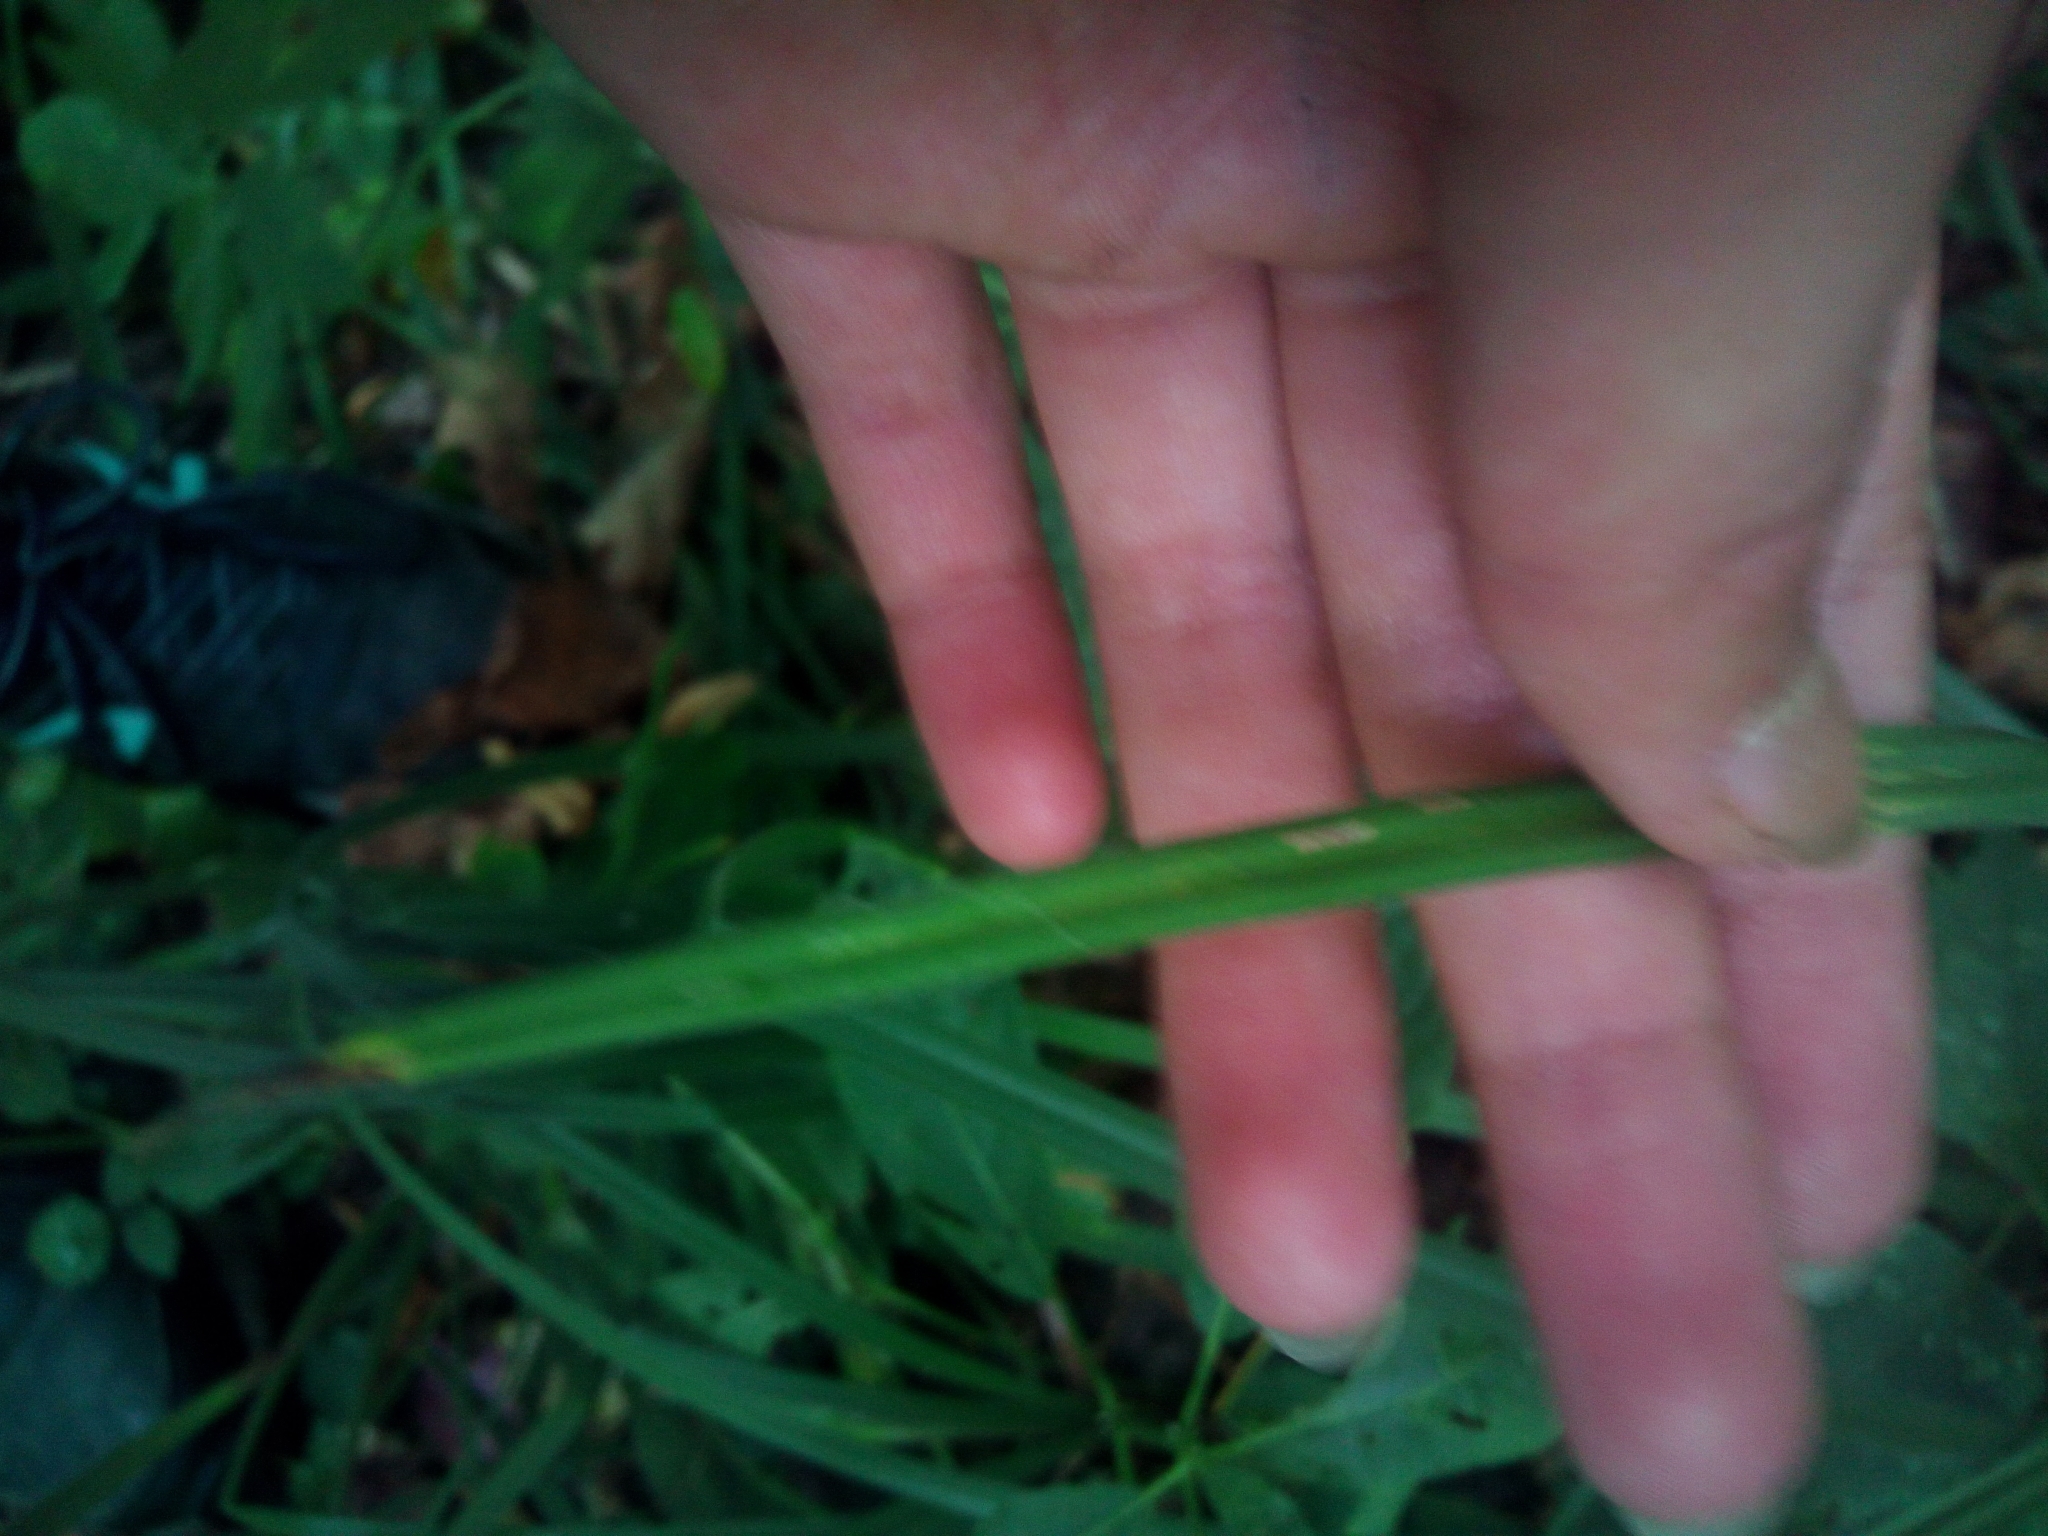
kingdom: Plantae
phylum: Tracheophyta
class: Liliopsida
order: Poales
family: Cyperaceae
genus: Carex
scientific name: Carex pilosa
